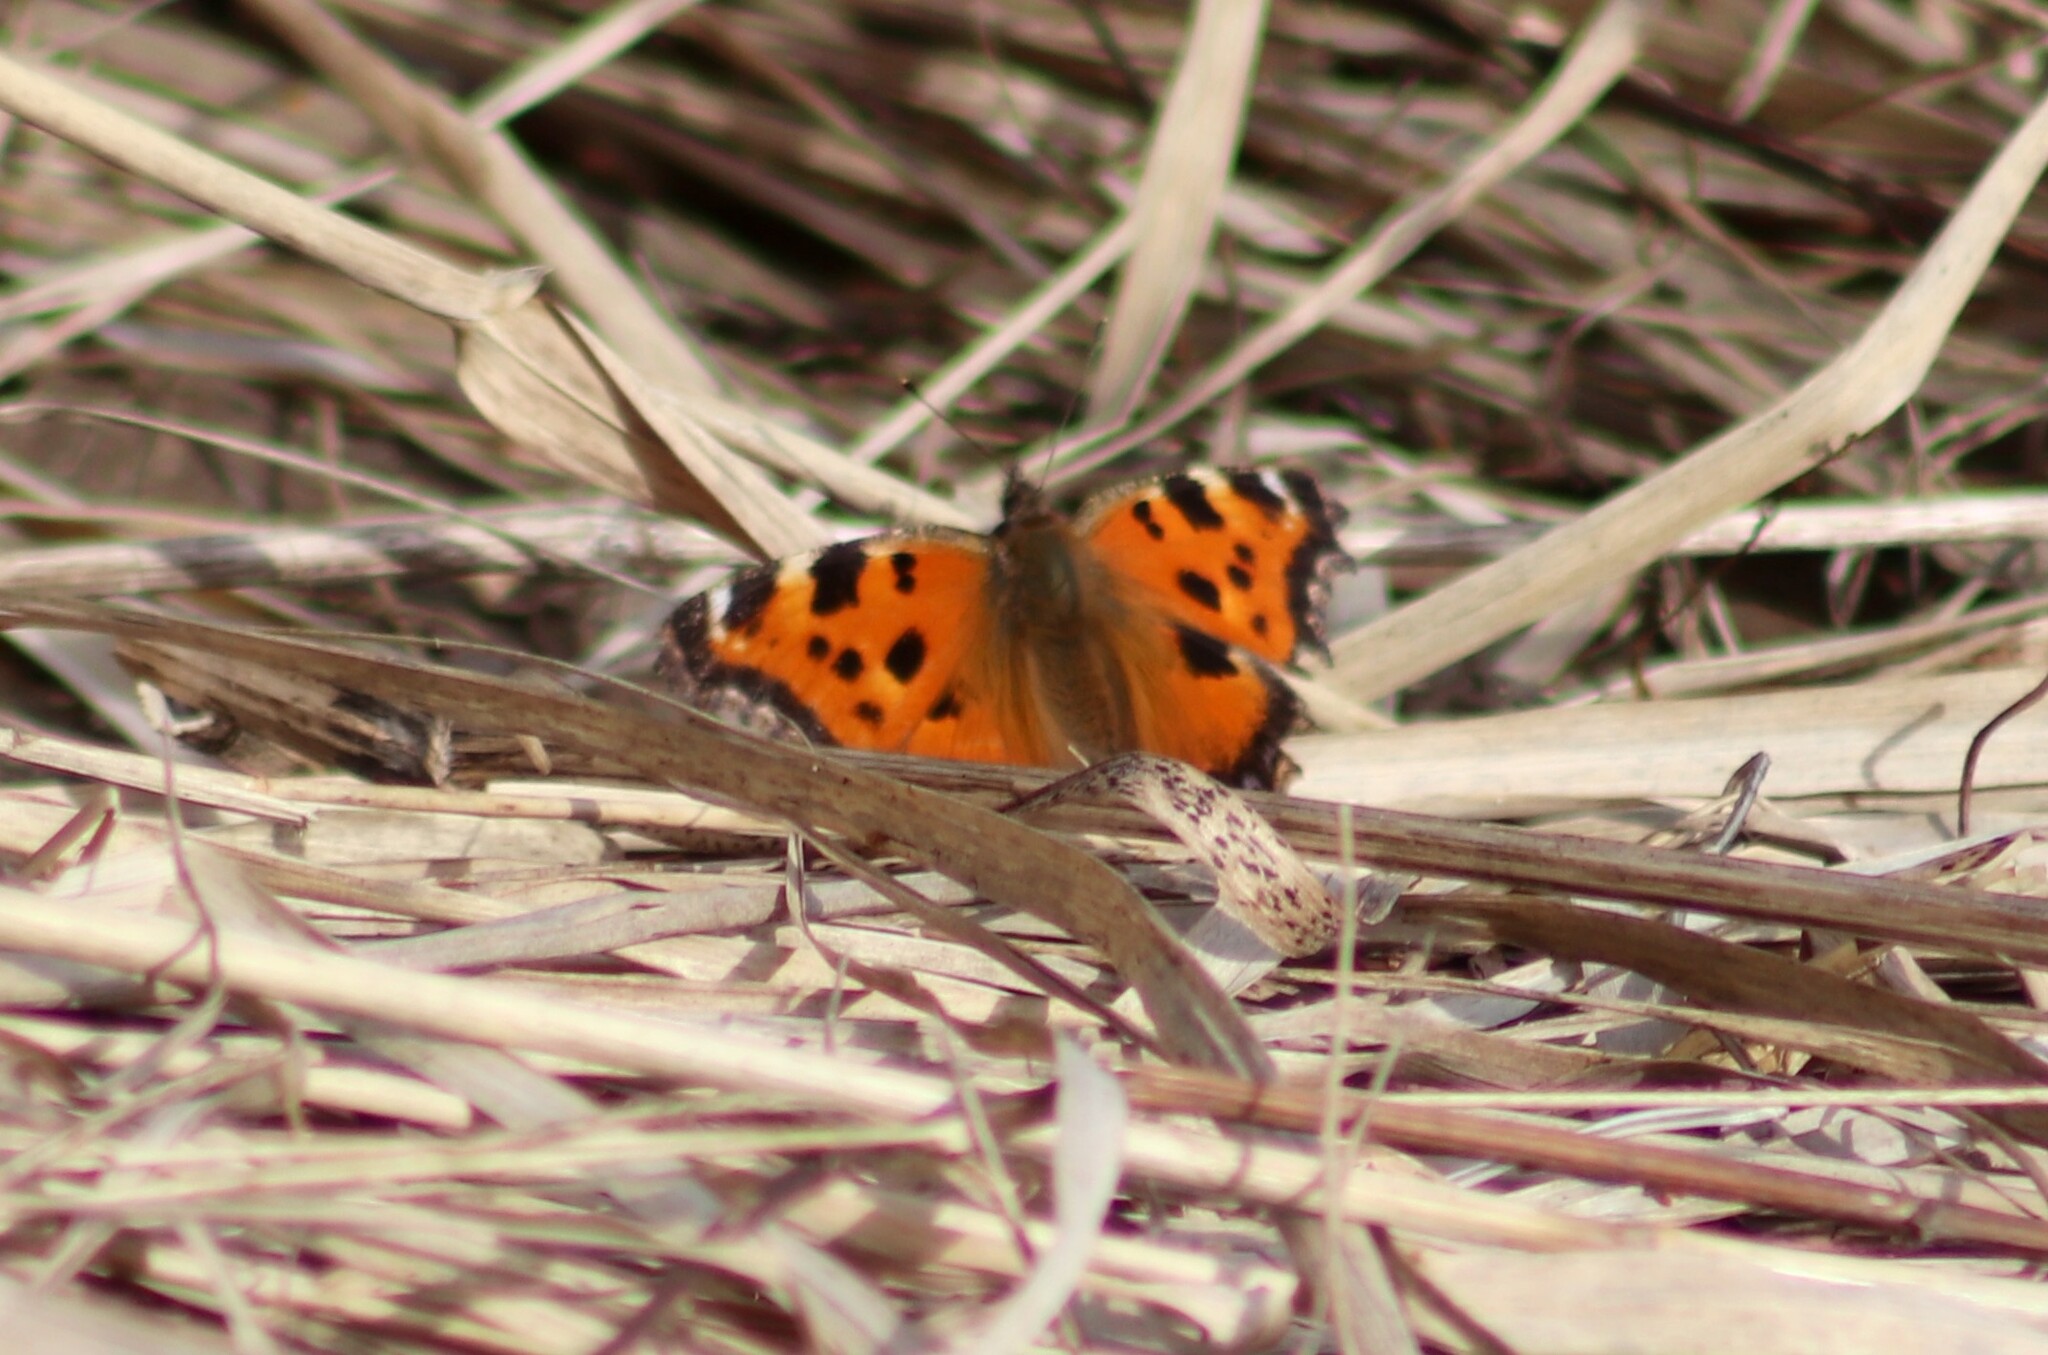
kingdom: Animalia
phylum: Arthropoda
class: Insecta
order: Lepidoptera
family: Nymphalidae
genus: Nymphalis
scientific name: Nymphalis xanthomelas
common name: Scarce tortoiseshell
